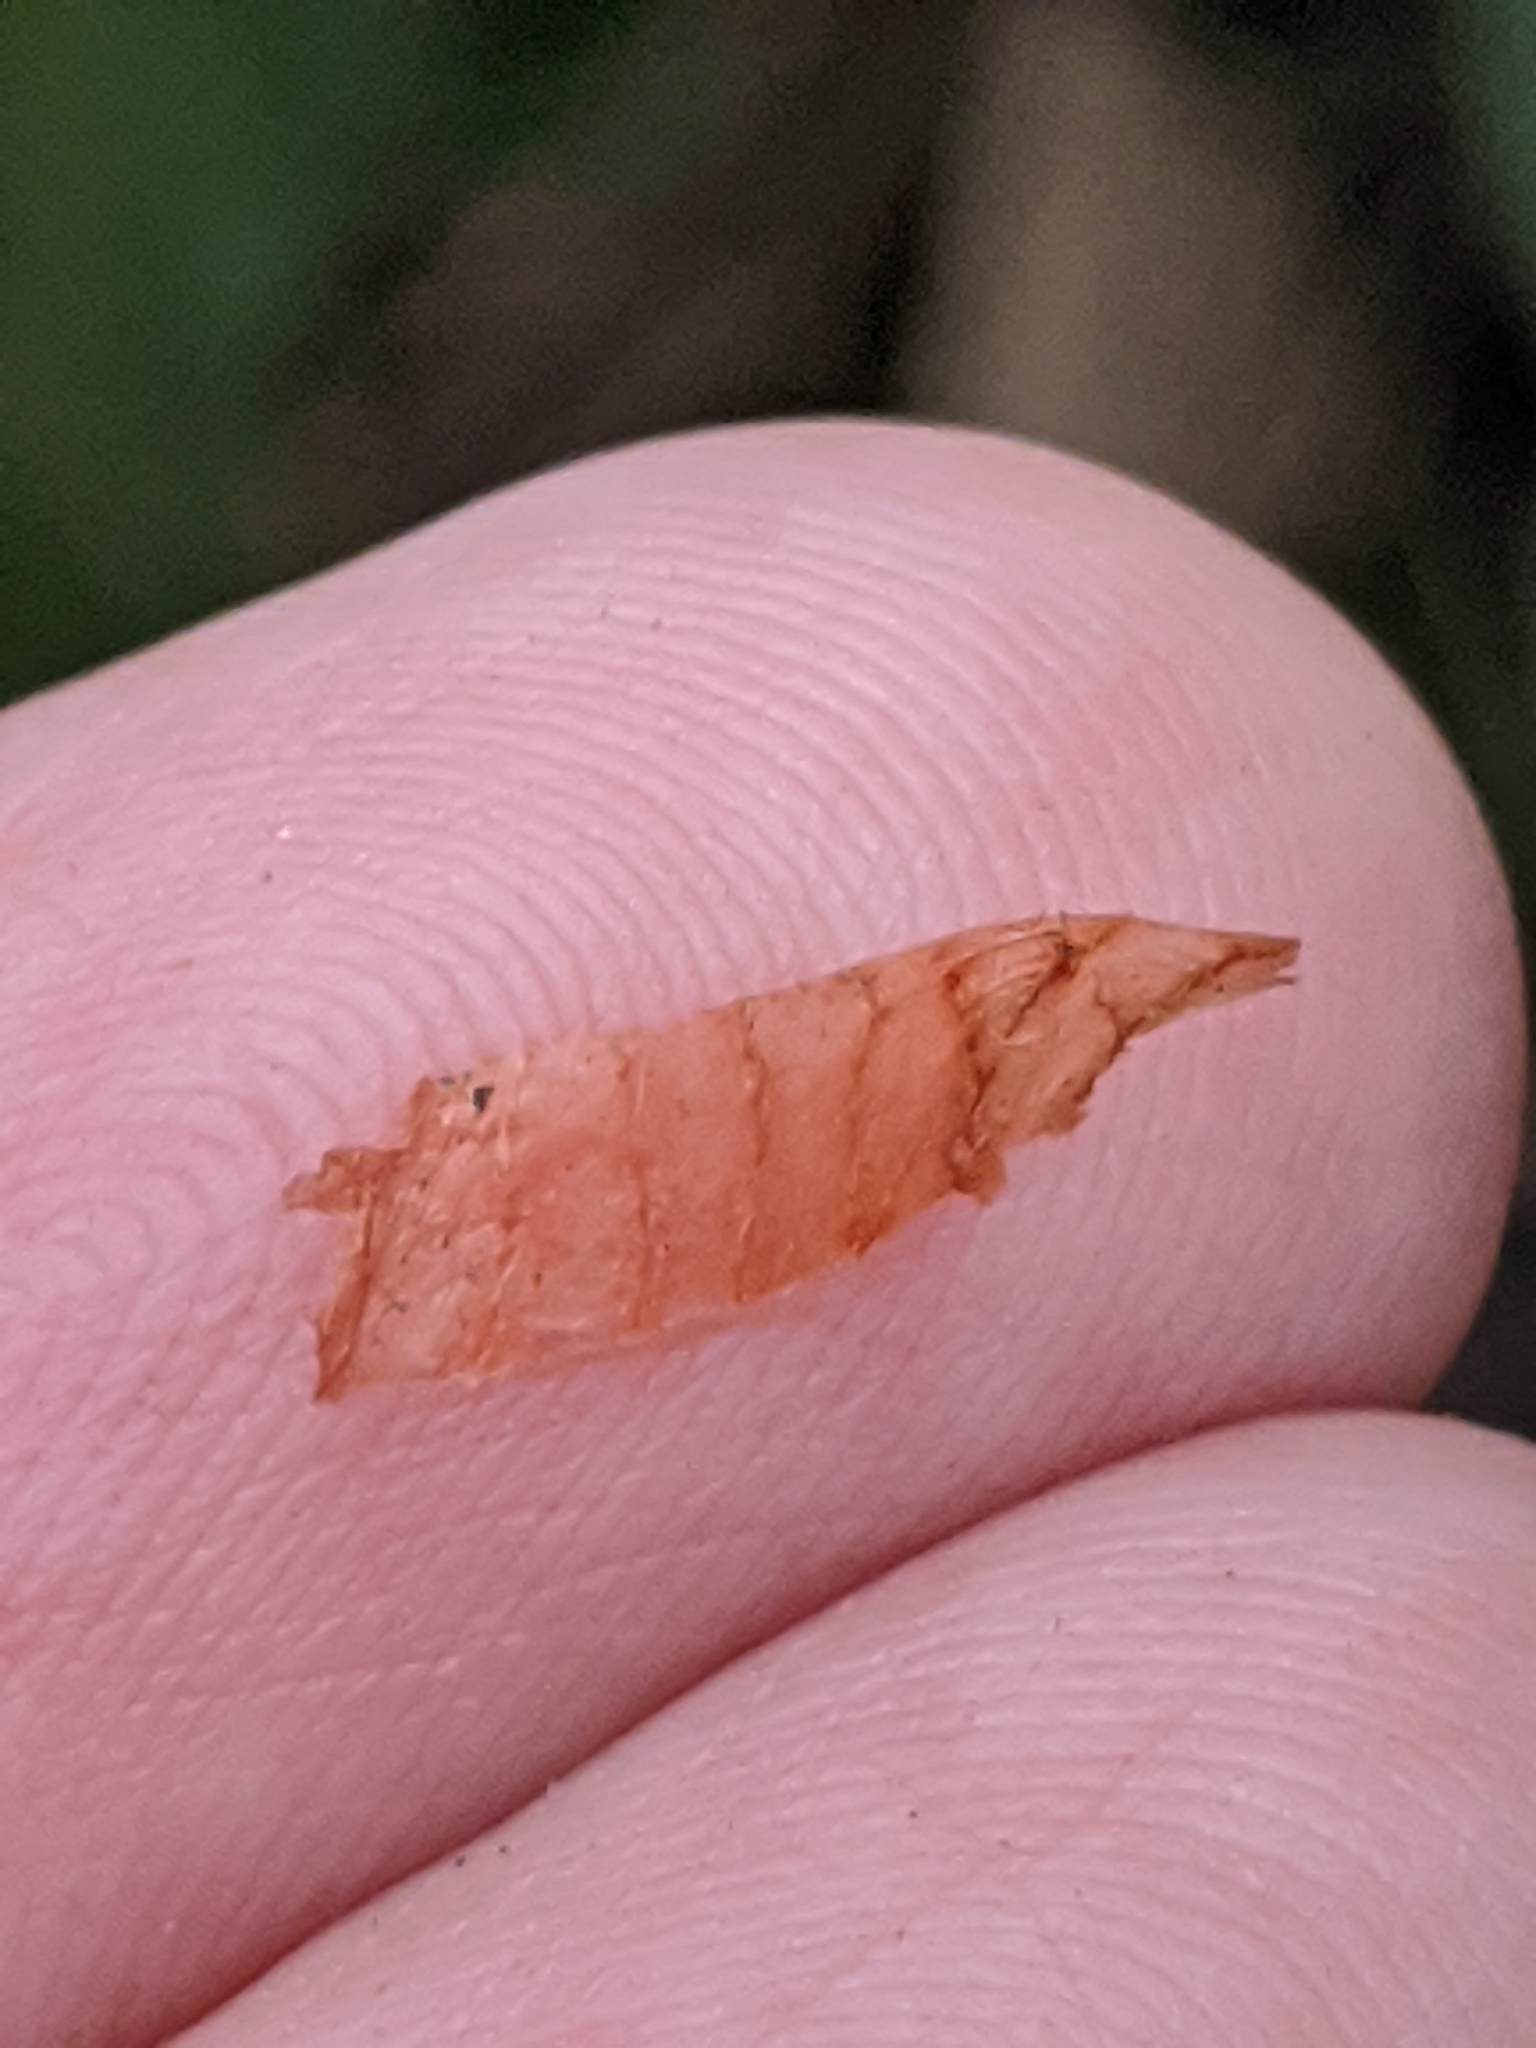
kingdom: Plantae
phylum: Tracheophyta
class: Magnoliopsida
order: Caryophyllales
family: Polygonaceae
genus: Persicaria
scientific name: Persicaria glabra
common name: Denseflower knotweed
